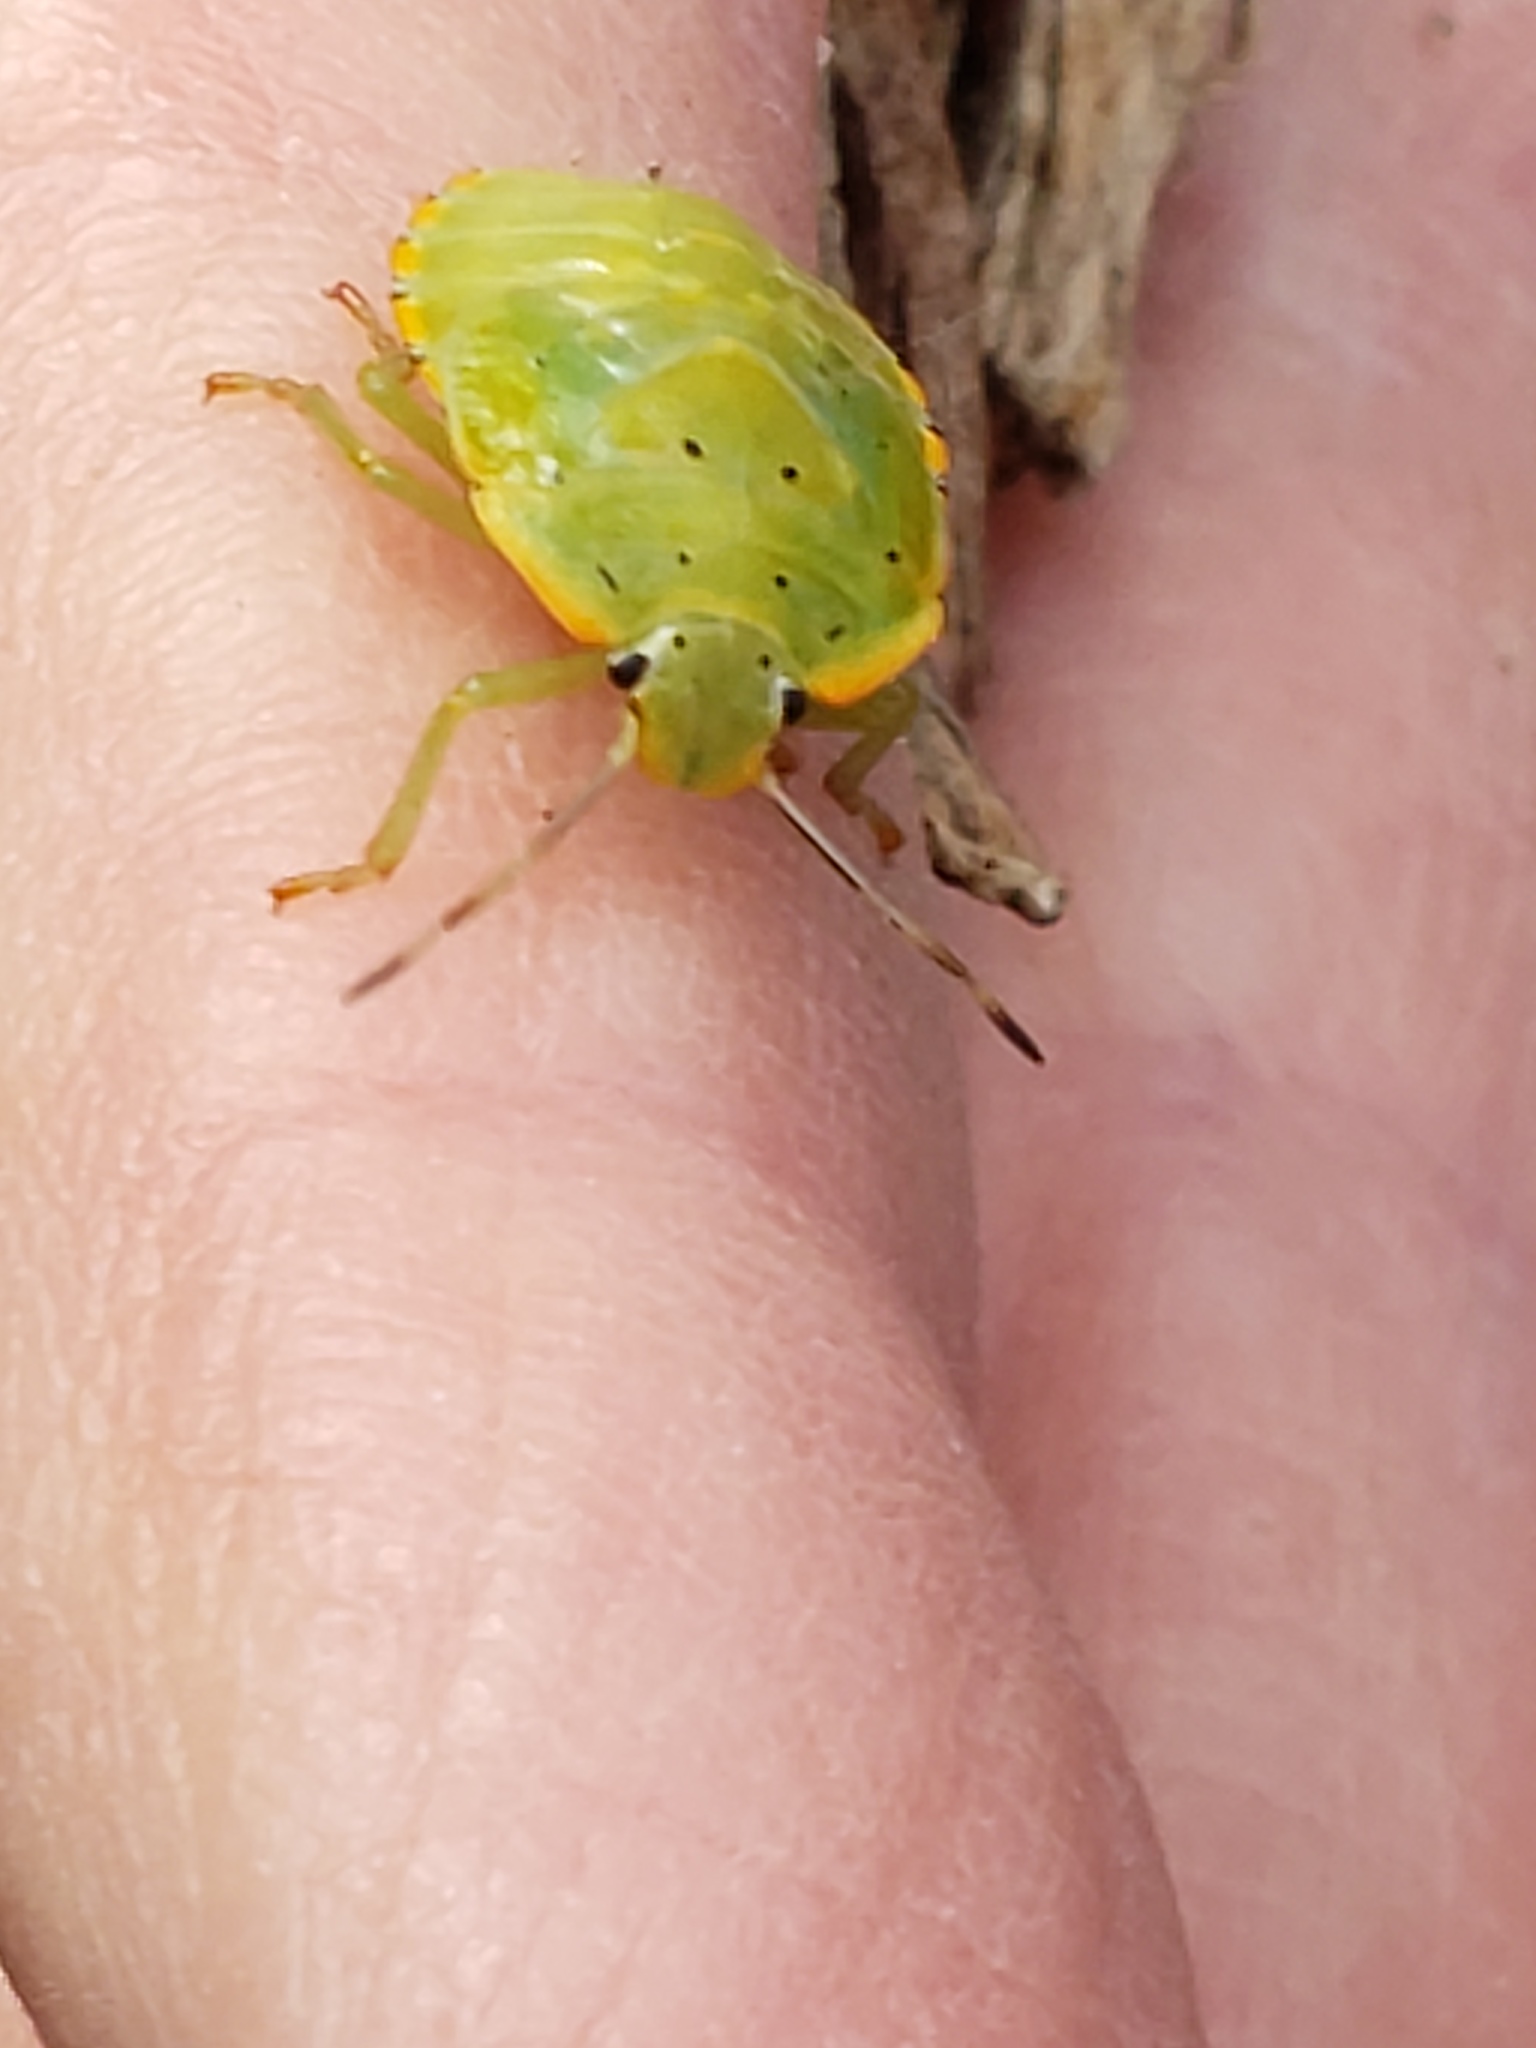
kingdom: Animalia
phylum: Arthropoda
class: Insecta
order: Hemiptera
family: Pentatomidae
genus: Chinavia
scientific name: Chinavia hilaris
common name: Green stink bug
